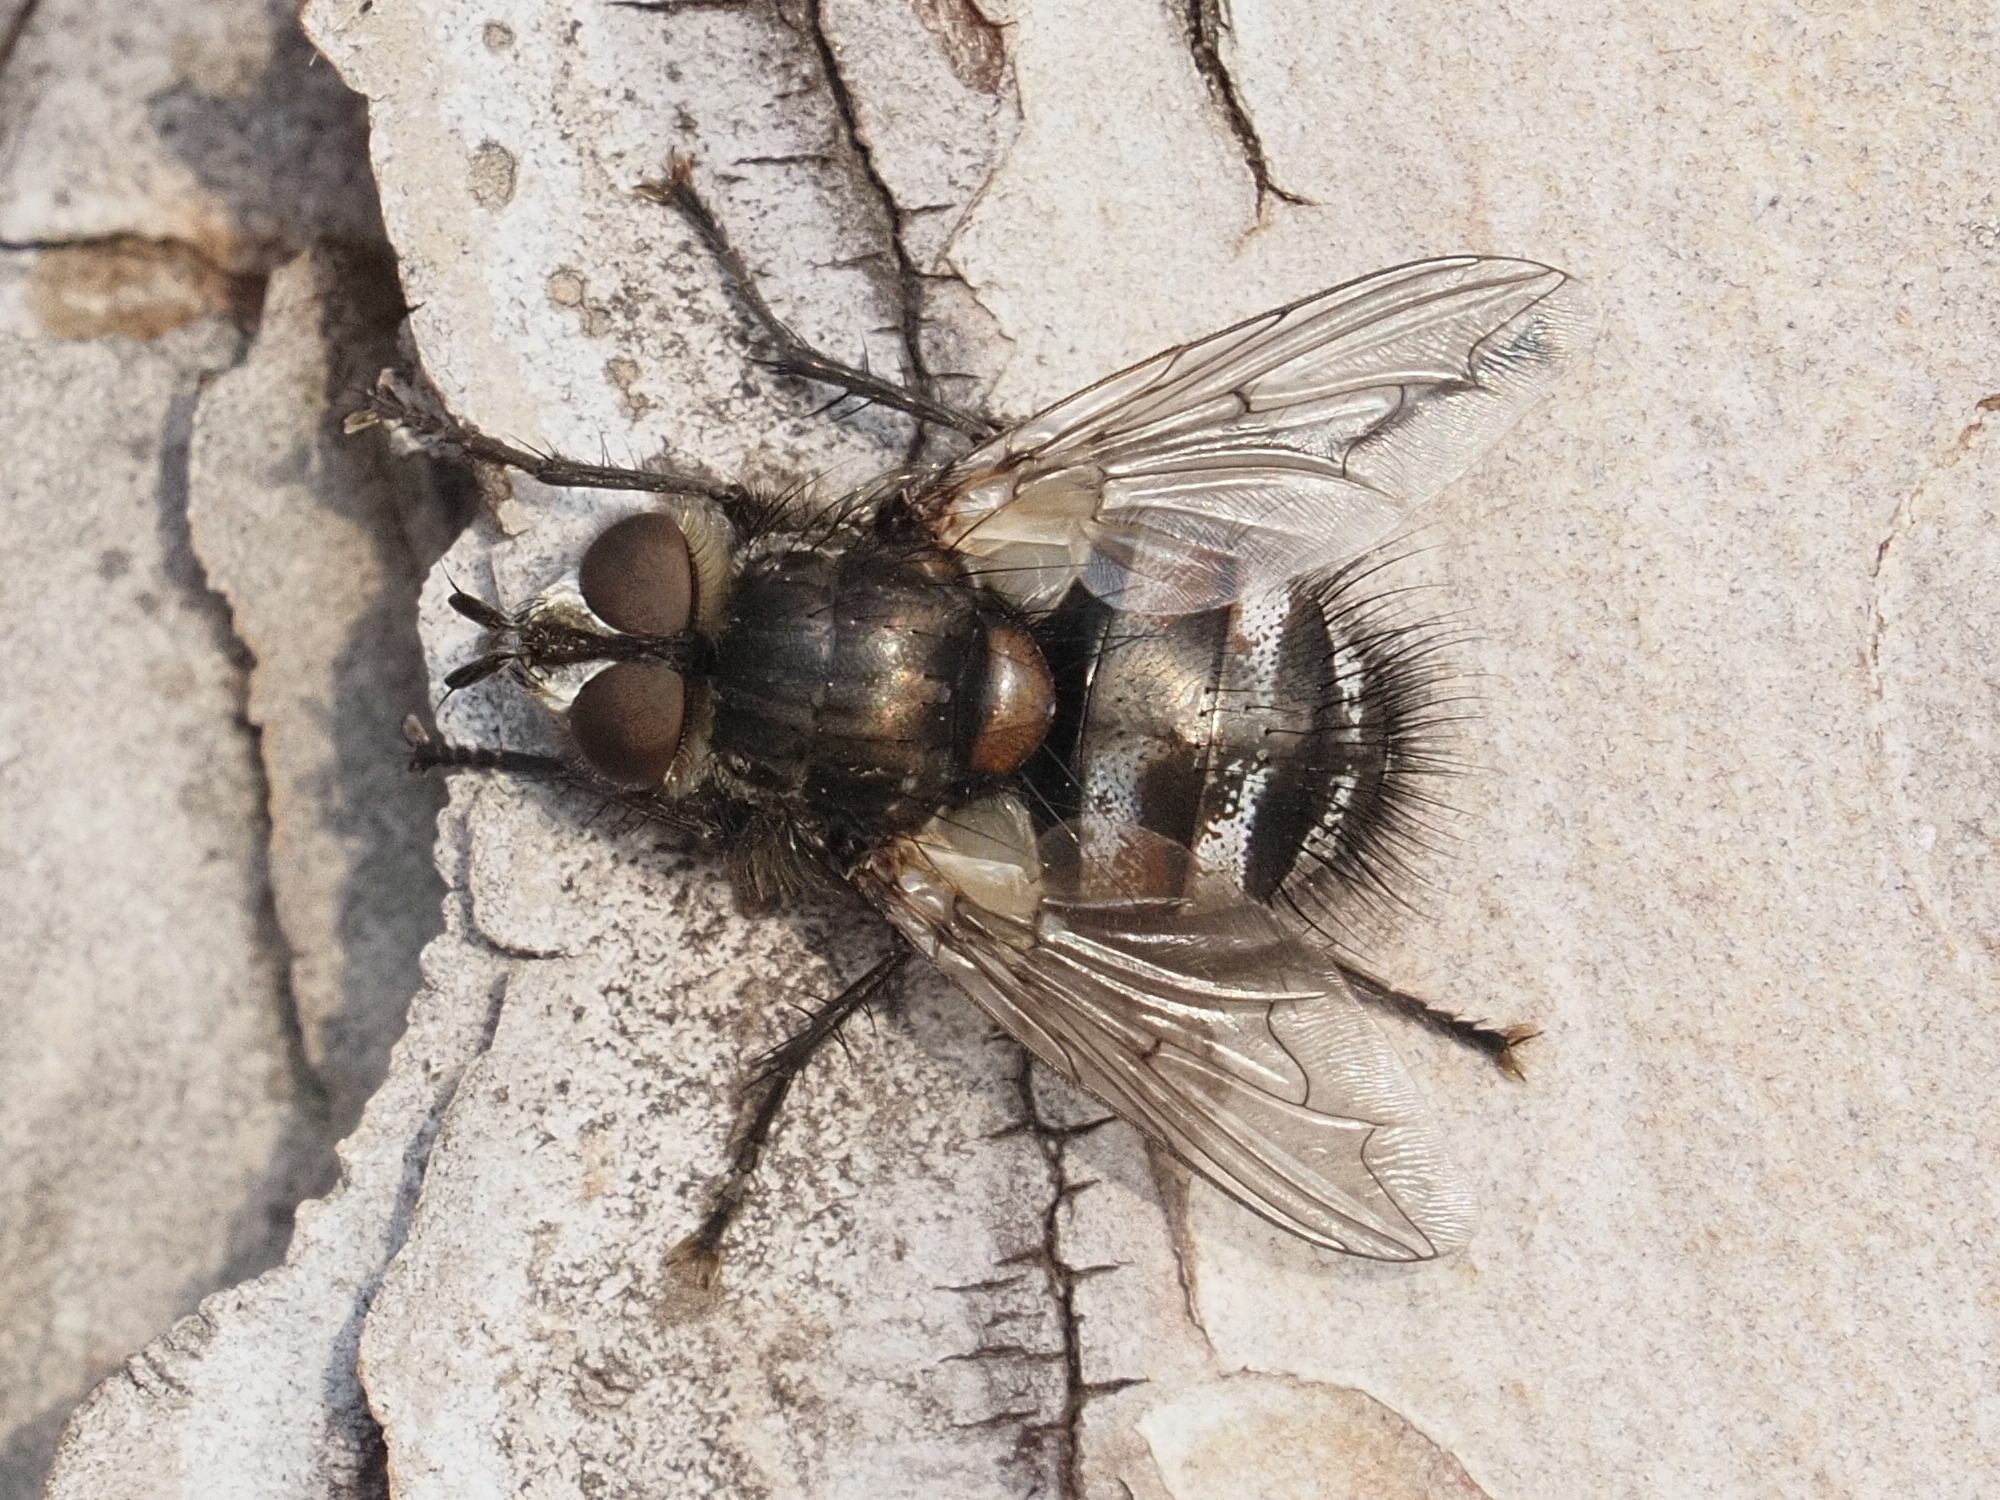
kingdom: Animalia
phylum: Arthropoda
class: Insecta
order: Diptera
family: Tachinidae
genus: Panzeria
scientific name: Panzeria puparum
